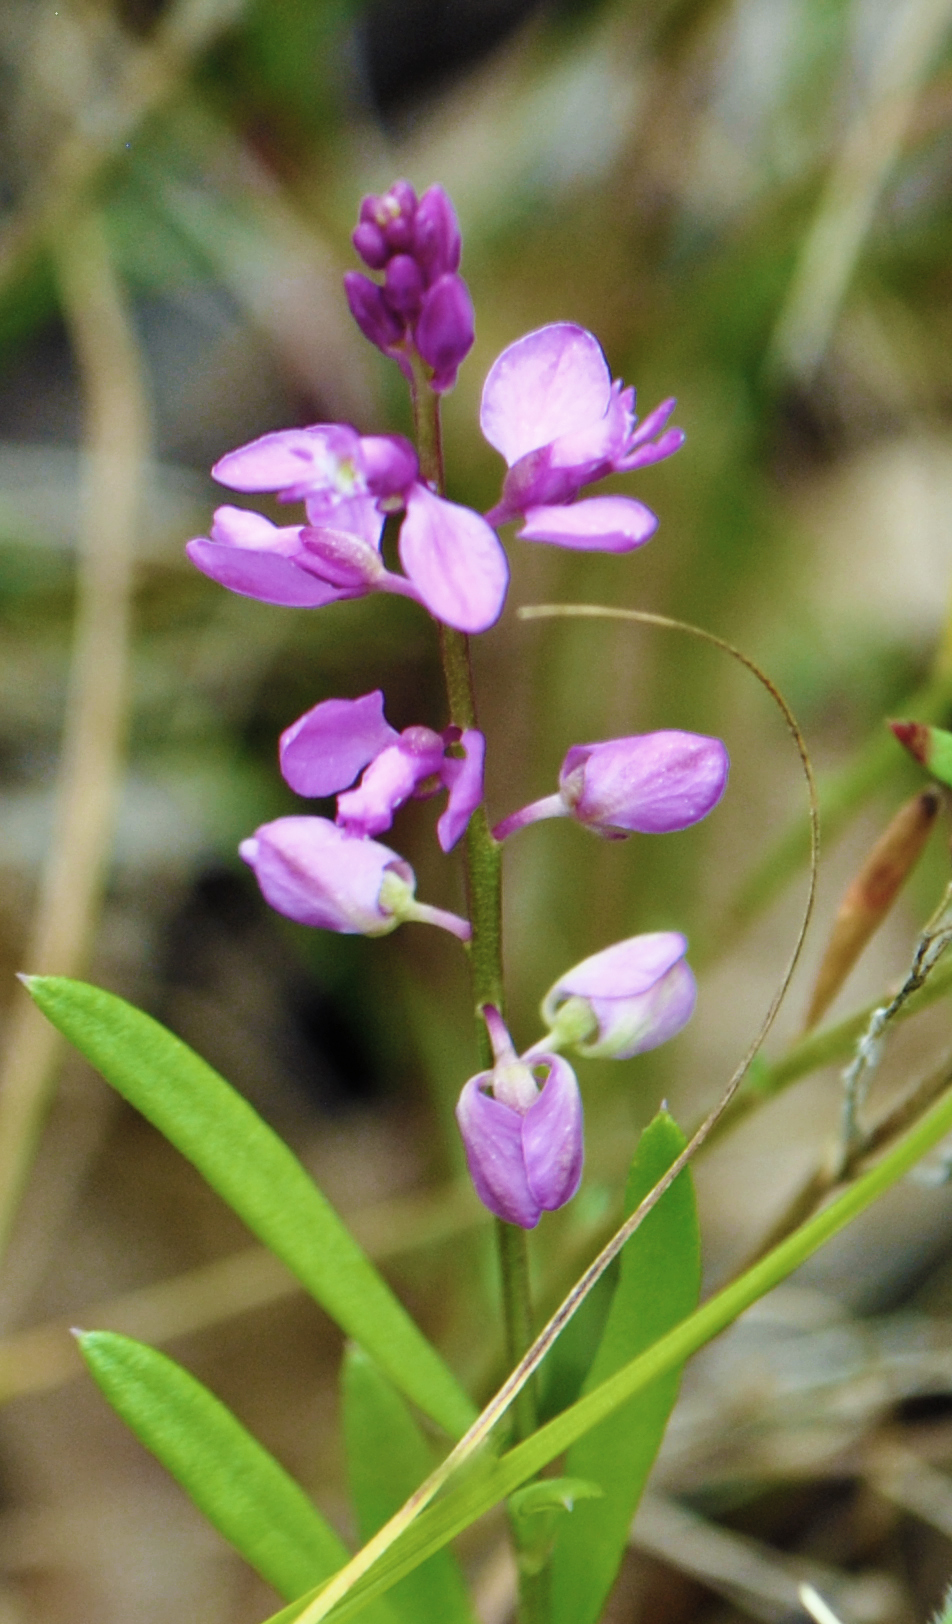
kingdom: Plantae
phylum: Tracheophyta
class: Magnoliopsida
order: Fabales
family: Polygalaceae
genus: Polygala
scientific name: Polygala polygama
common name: Bitter milkwort
